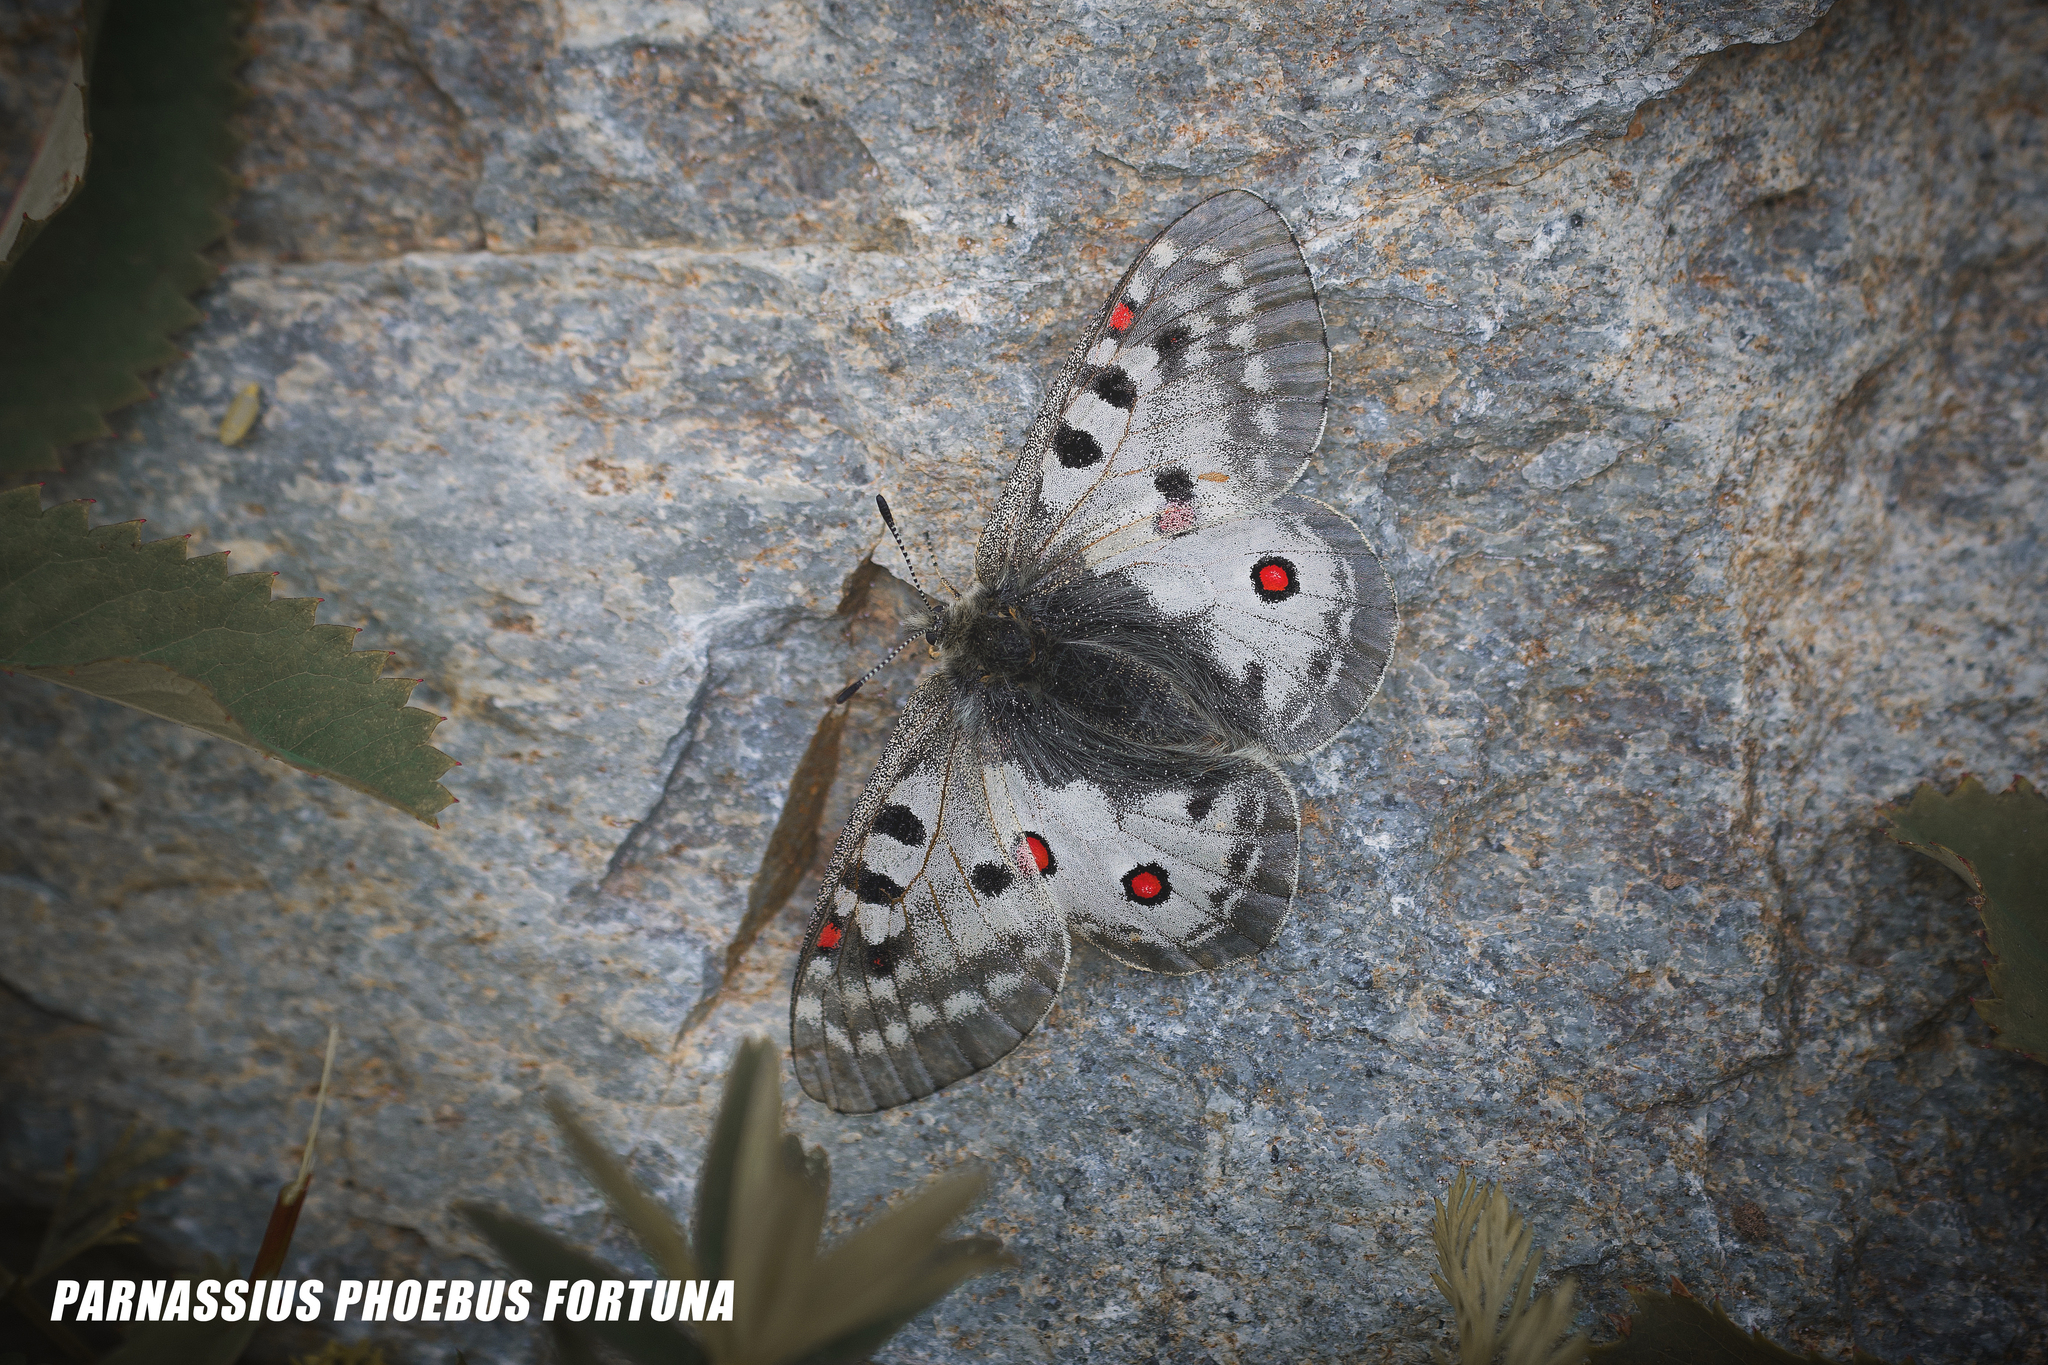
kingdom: Animalia
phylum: Arthropoda
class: Insecta
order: Lepidoptera
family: Papilionidae
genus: Parnassius
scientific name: Parnassius phoebus
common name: Small apollo
